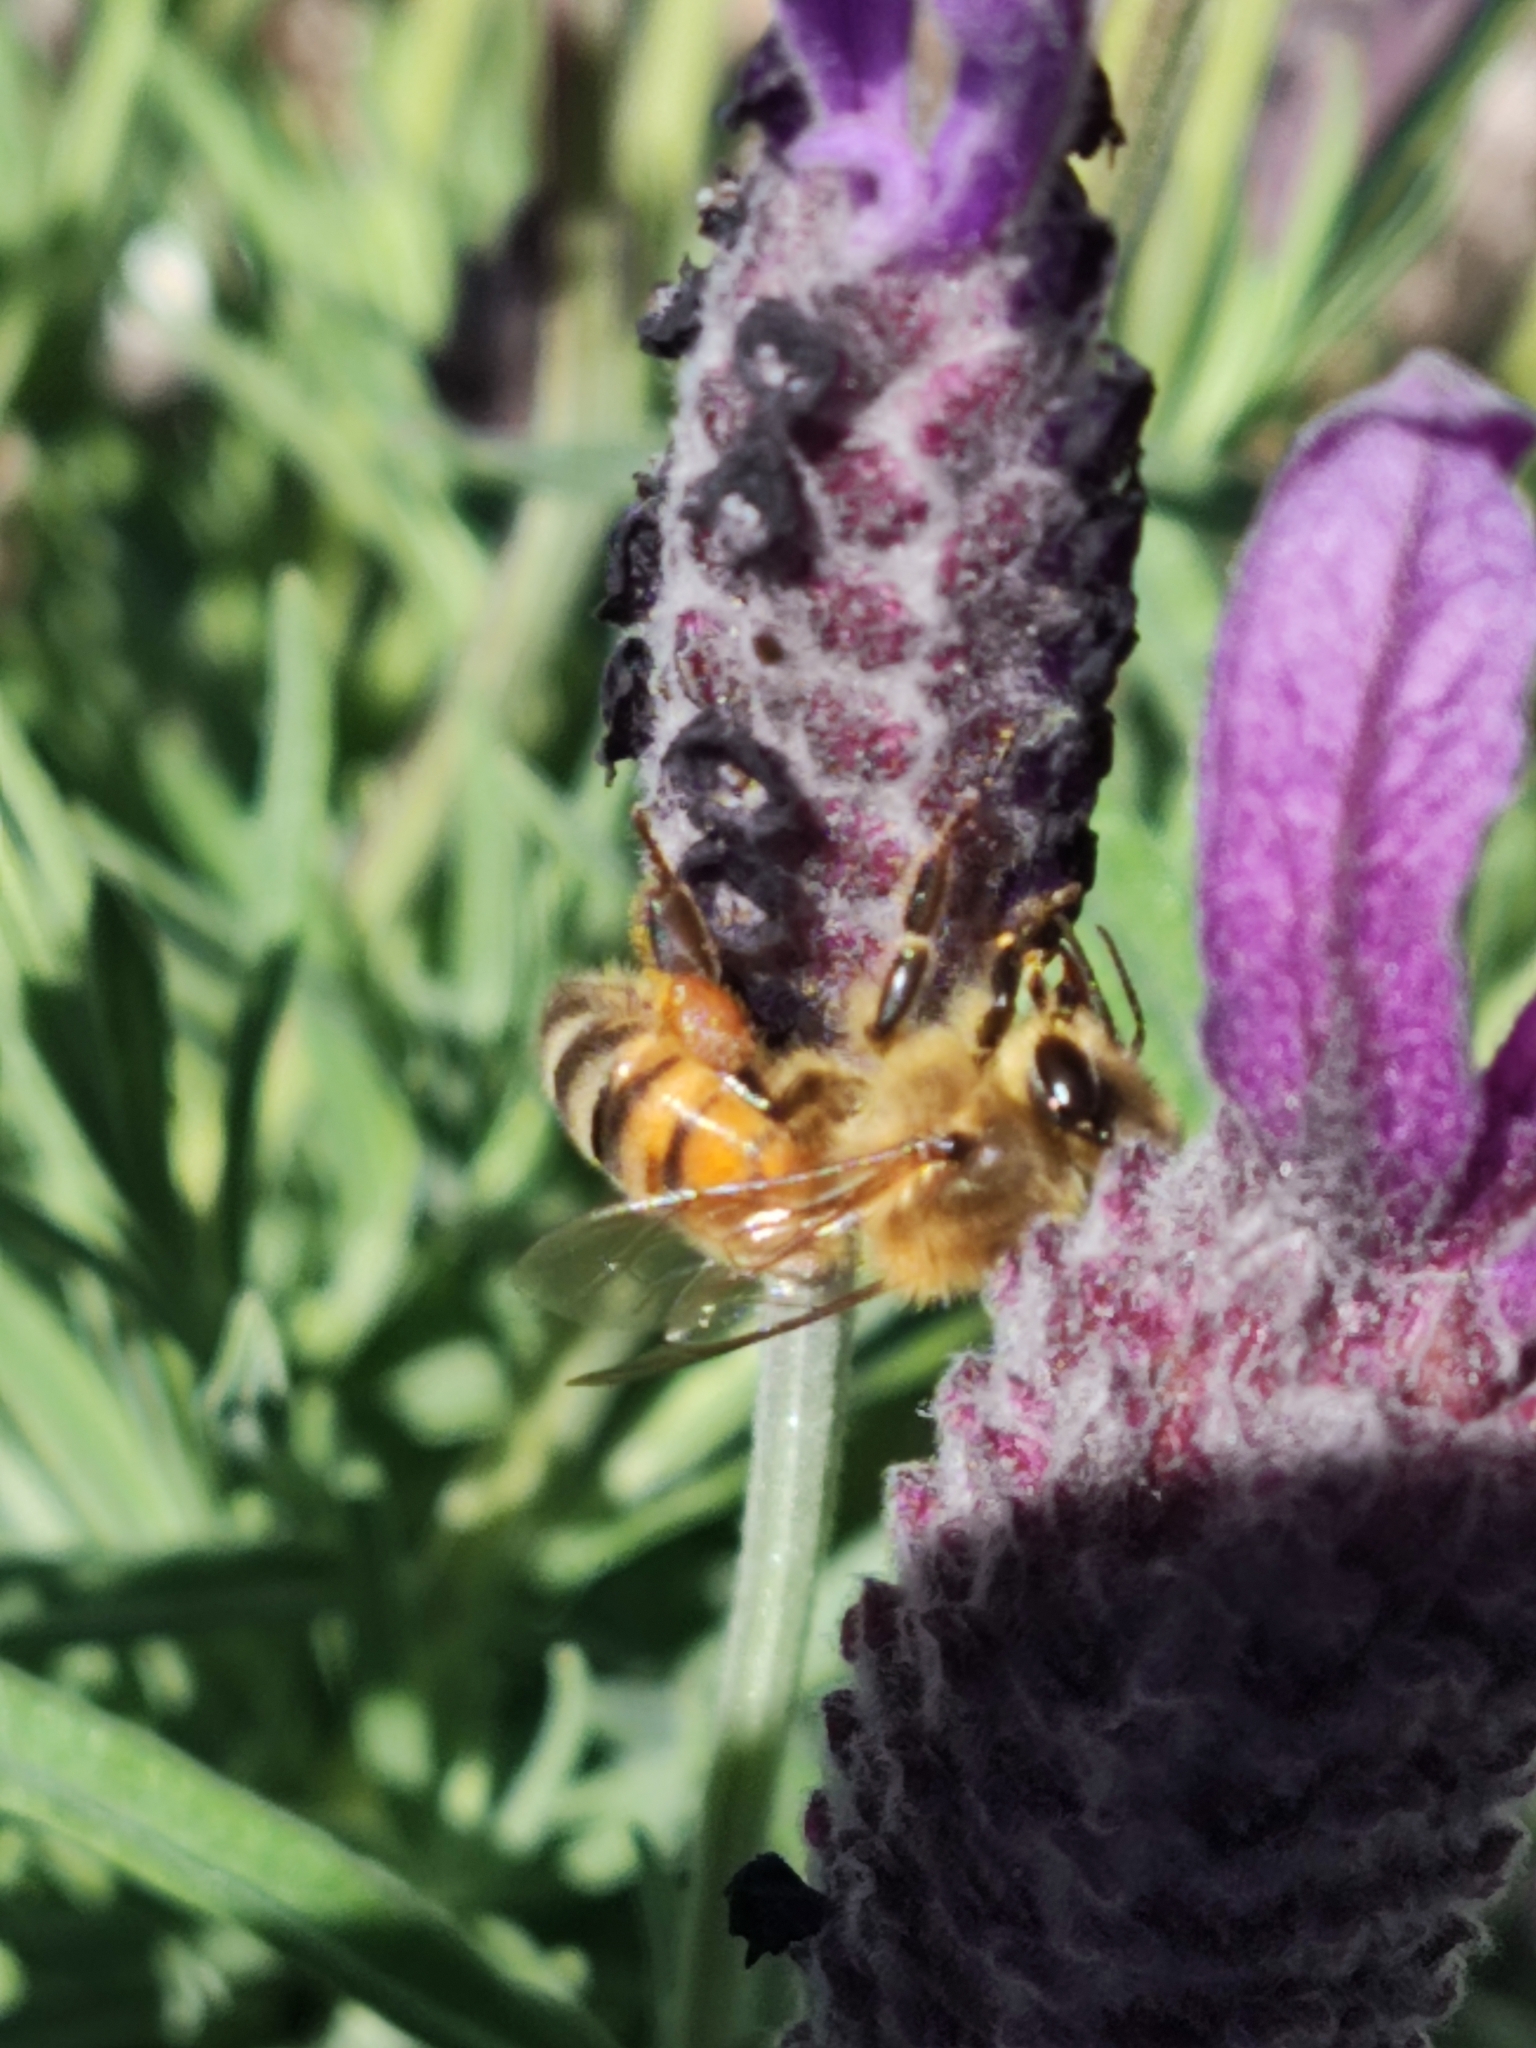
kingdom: Animalia
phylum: Arthropoda
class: Insecta
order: Hymenoptera
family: Apidae
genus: Apis
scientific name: Apis mellifera
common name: Honey bee
